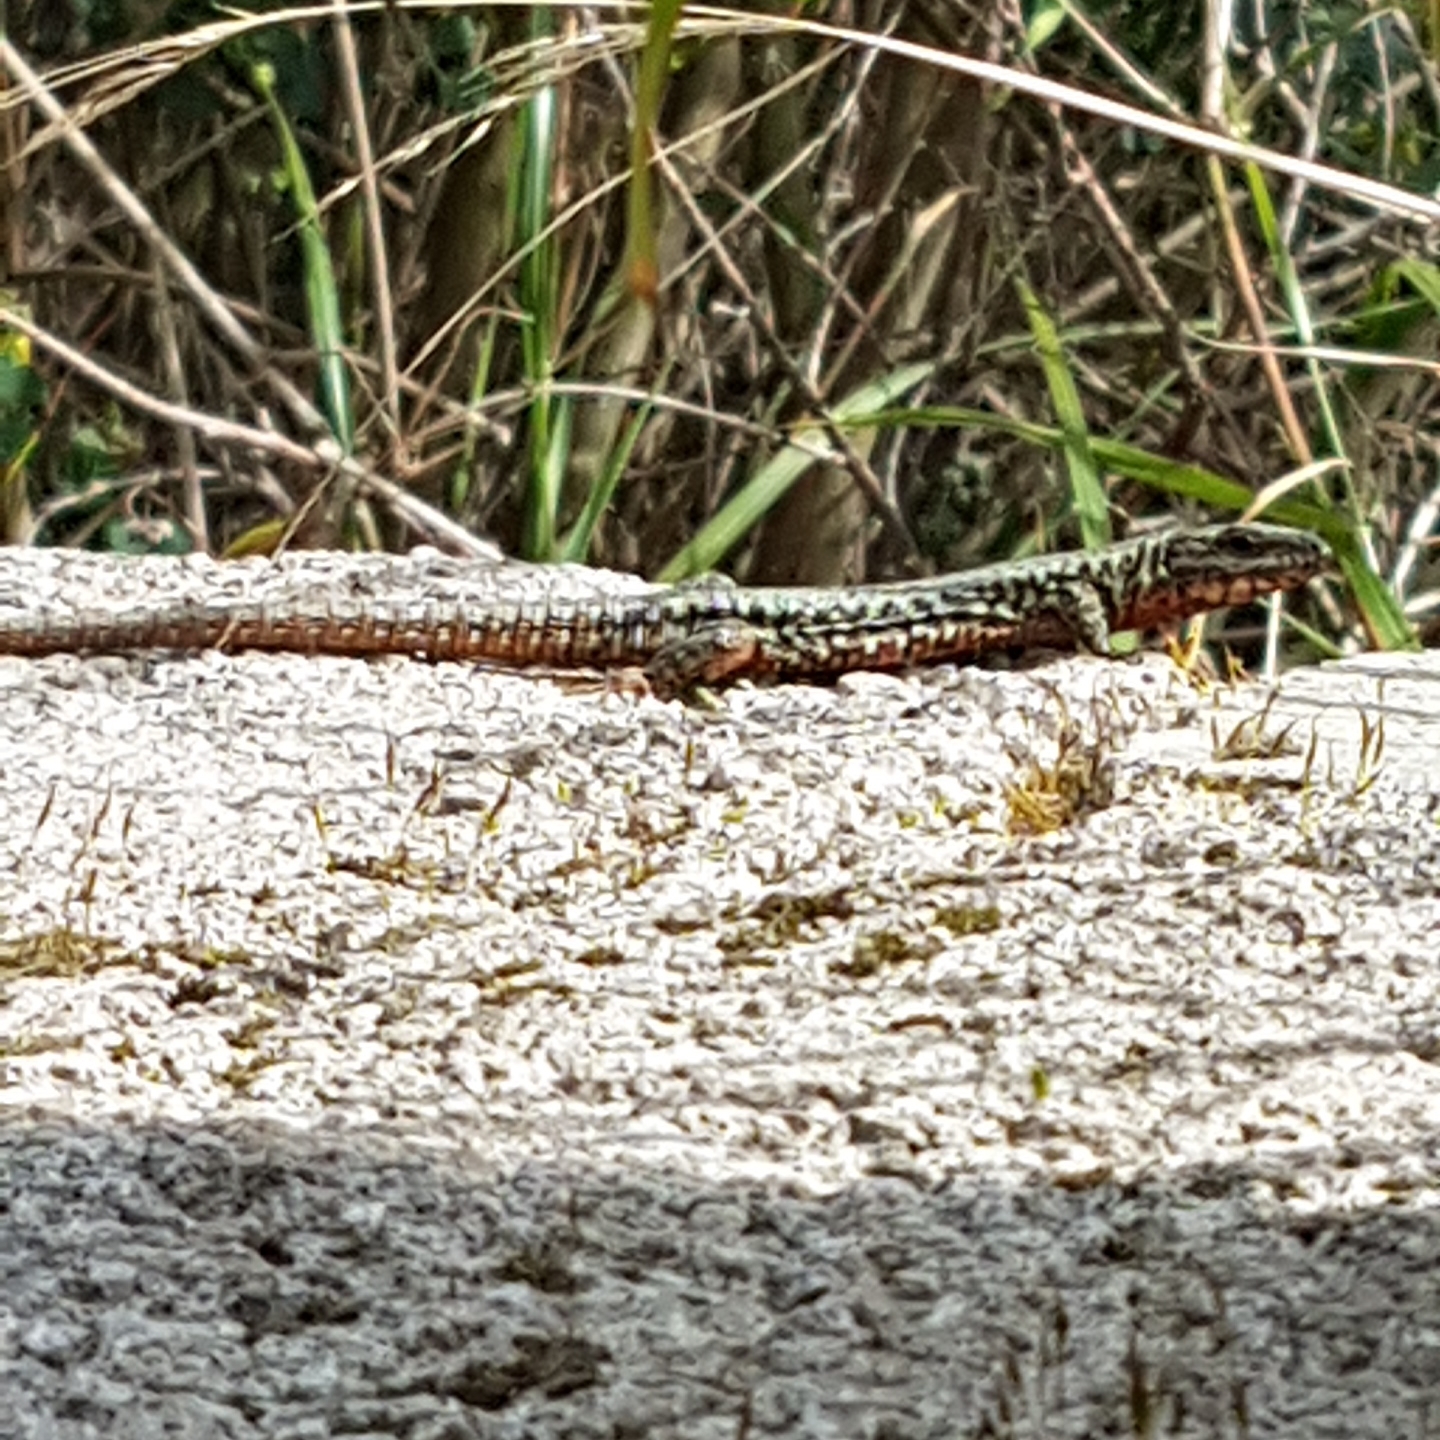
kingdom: Animalia
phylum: Chordata
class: Squamata
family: Lacertidae
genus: Podarcis
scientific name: Podarcis muralis
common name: Common wall lizard
